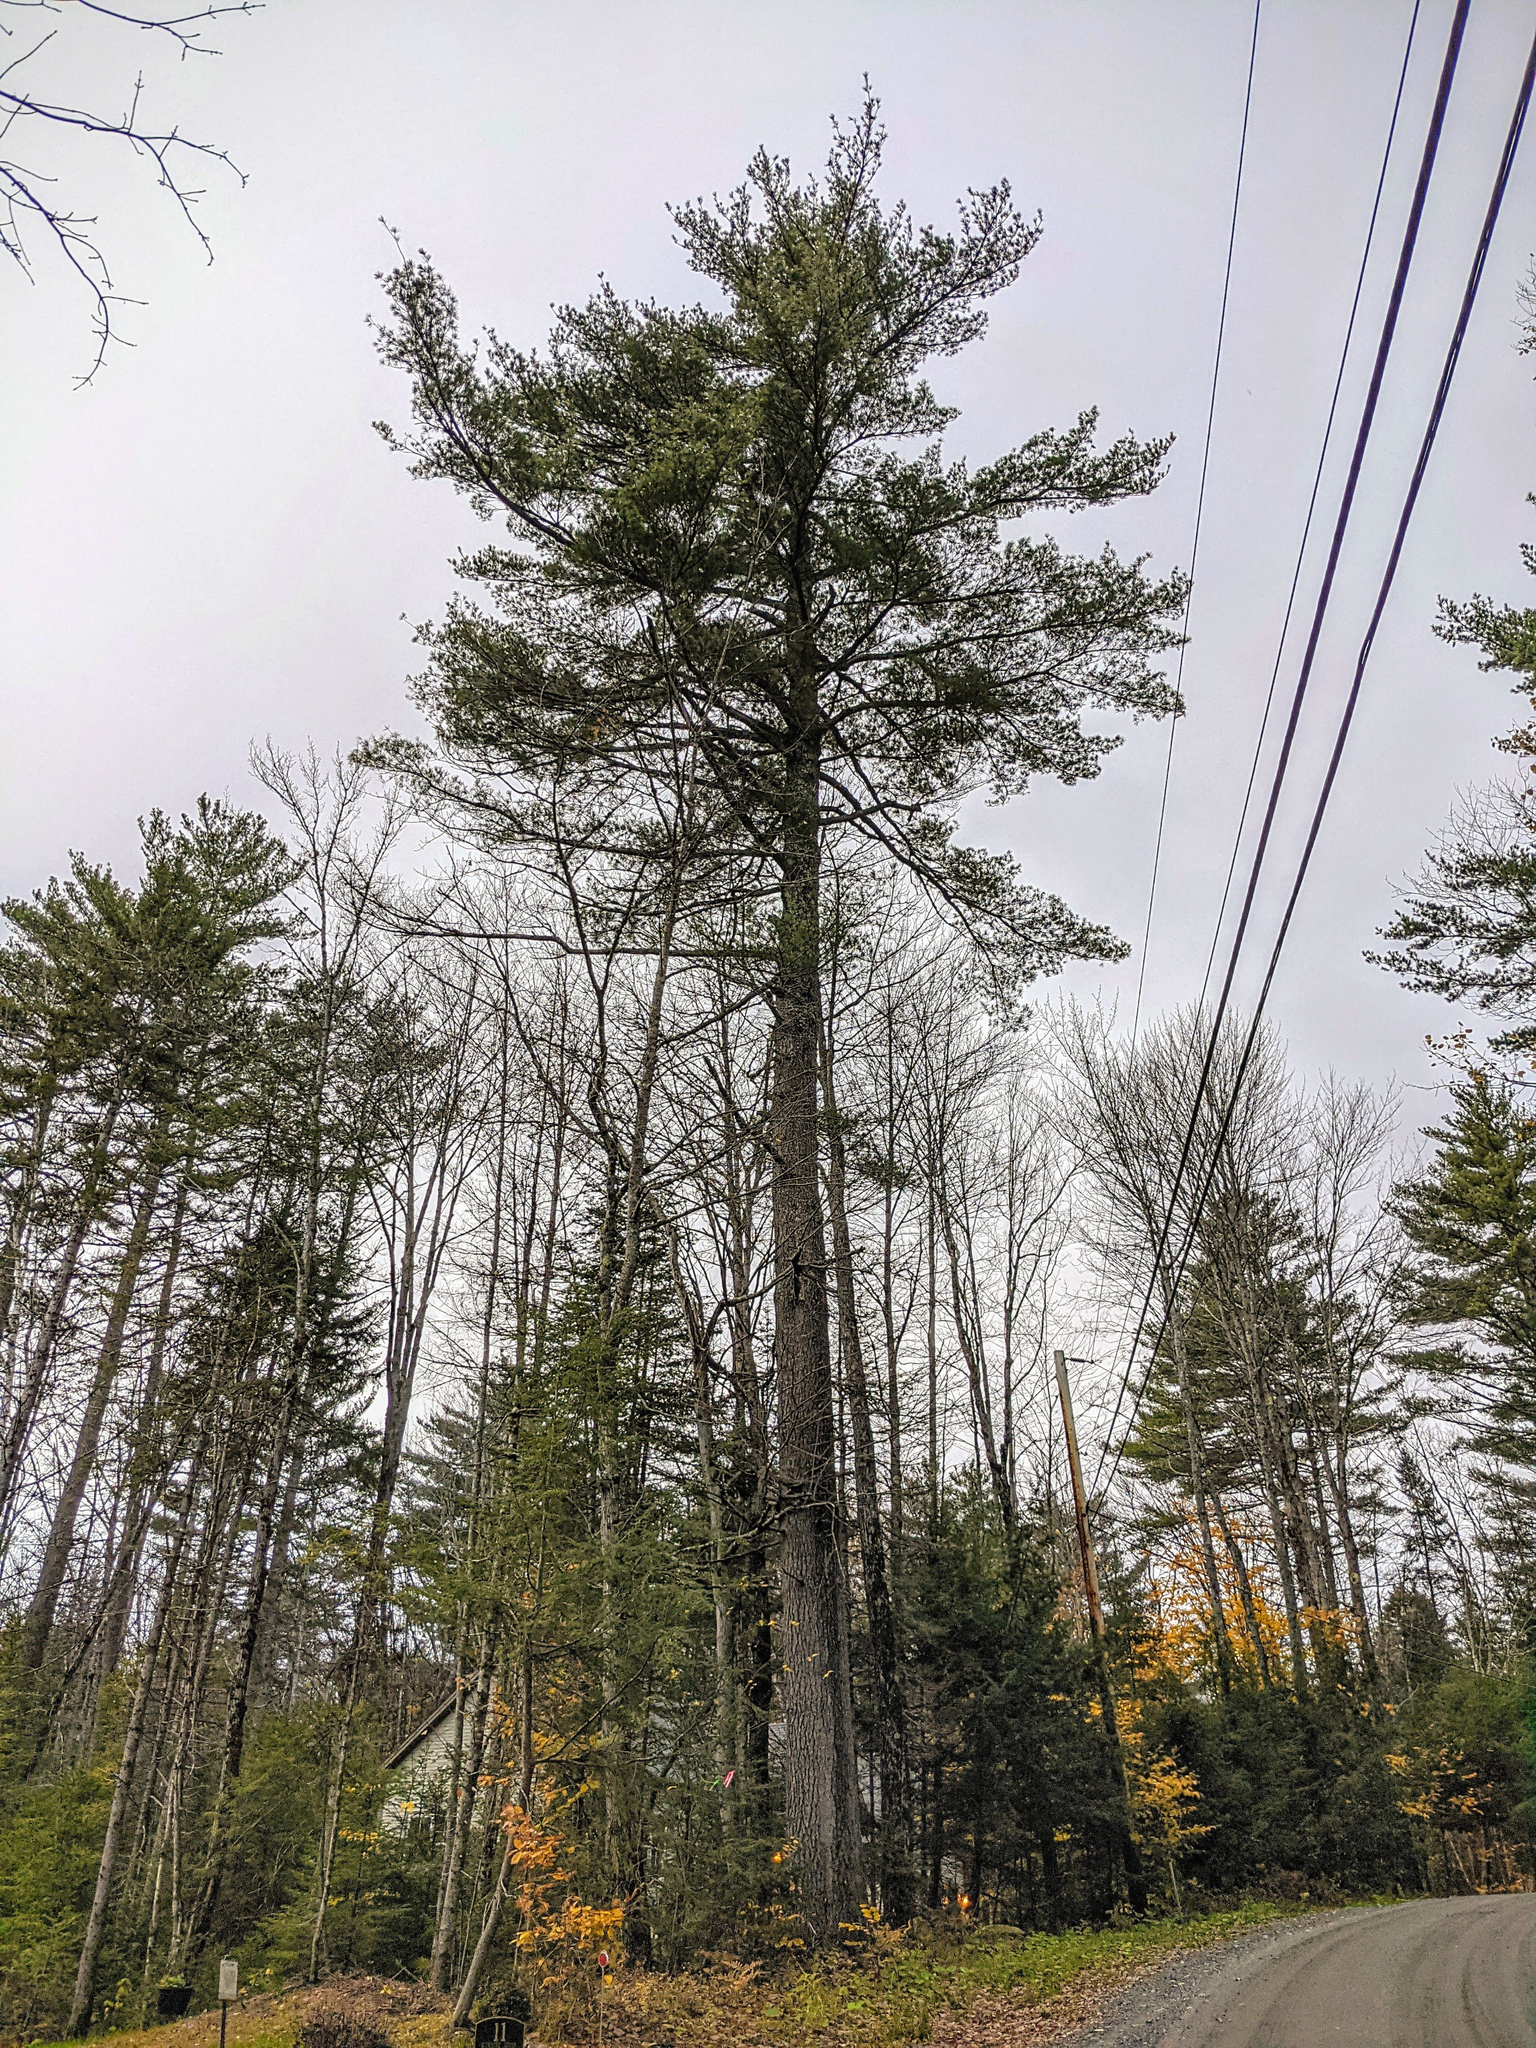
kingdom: Plantae
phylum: Tracheophyta
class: Pinopsida
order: Pinales
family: Pinaceae
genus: Pinus
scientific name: Pinus strobus
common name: Weymouth pine
